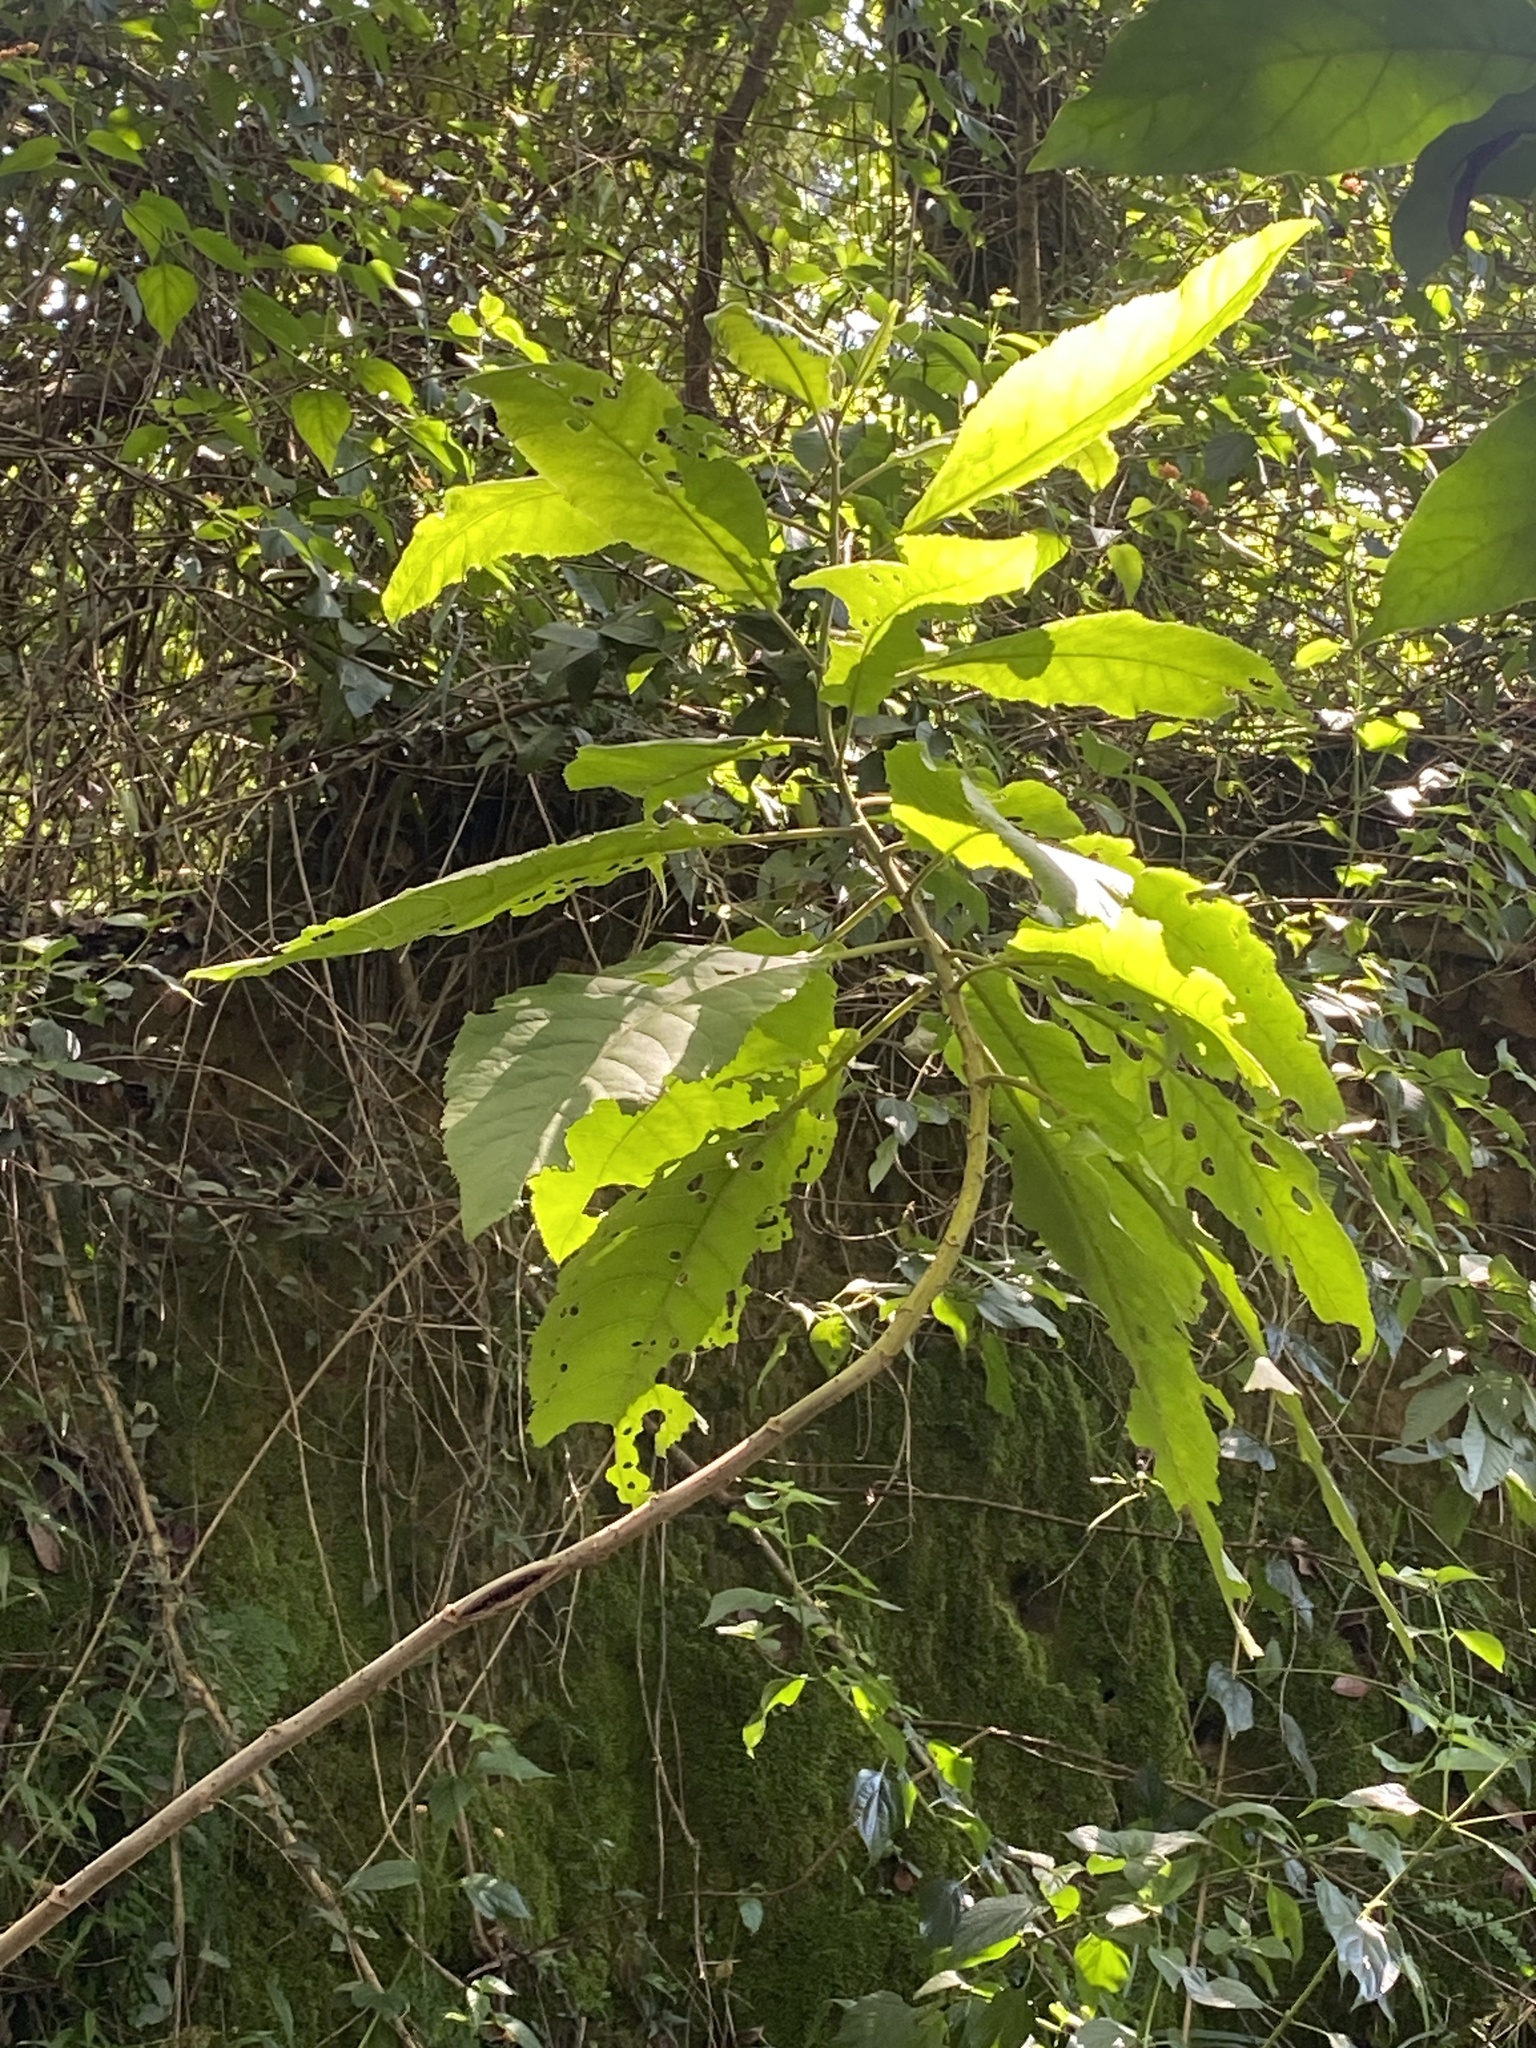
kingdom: Plantae
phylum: Tracheophyta
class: Magnoliopsida
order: Asterales
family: Asteraceae
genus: Gymnanthemum
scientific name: Gymnanthemum myrianthum
